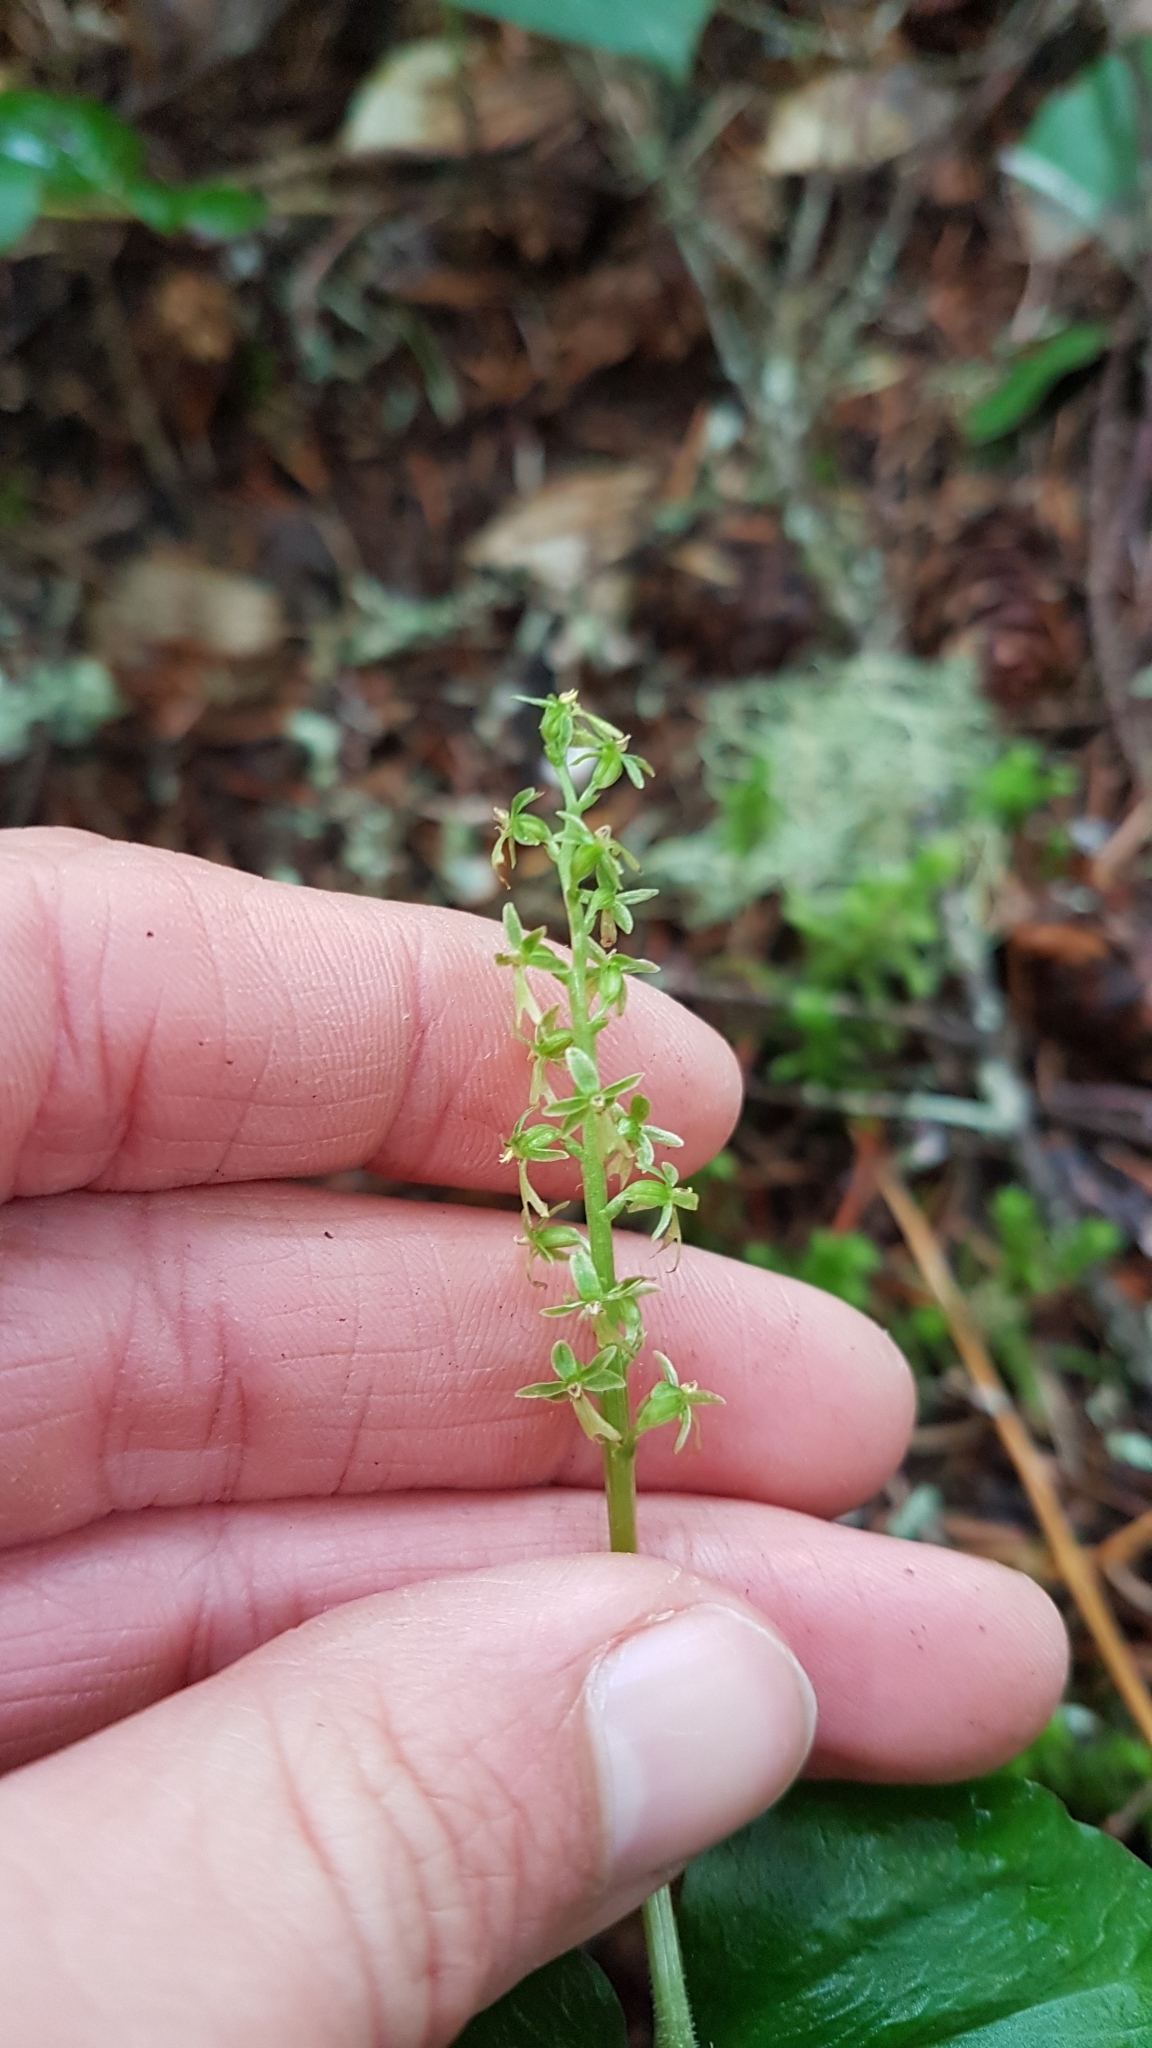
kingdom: Plantae
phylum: Tracheophyta
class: Liliopsida
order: Asparagales
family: Orchidaceae
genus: Neottia
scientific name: Neottia cordata
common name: Lesser twayblade
